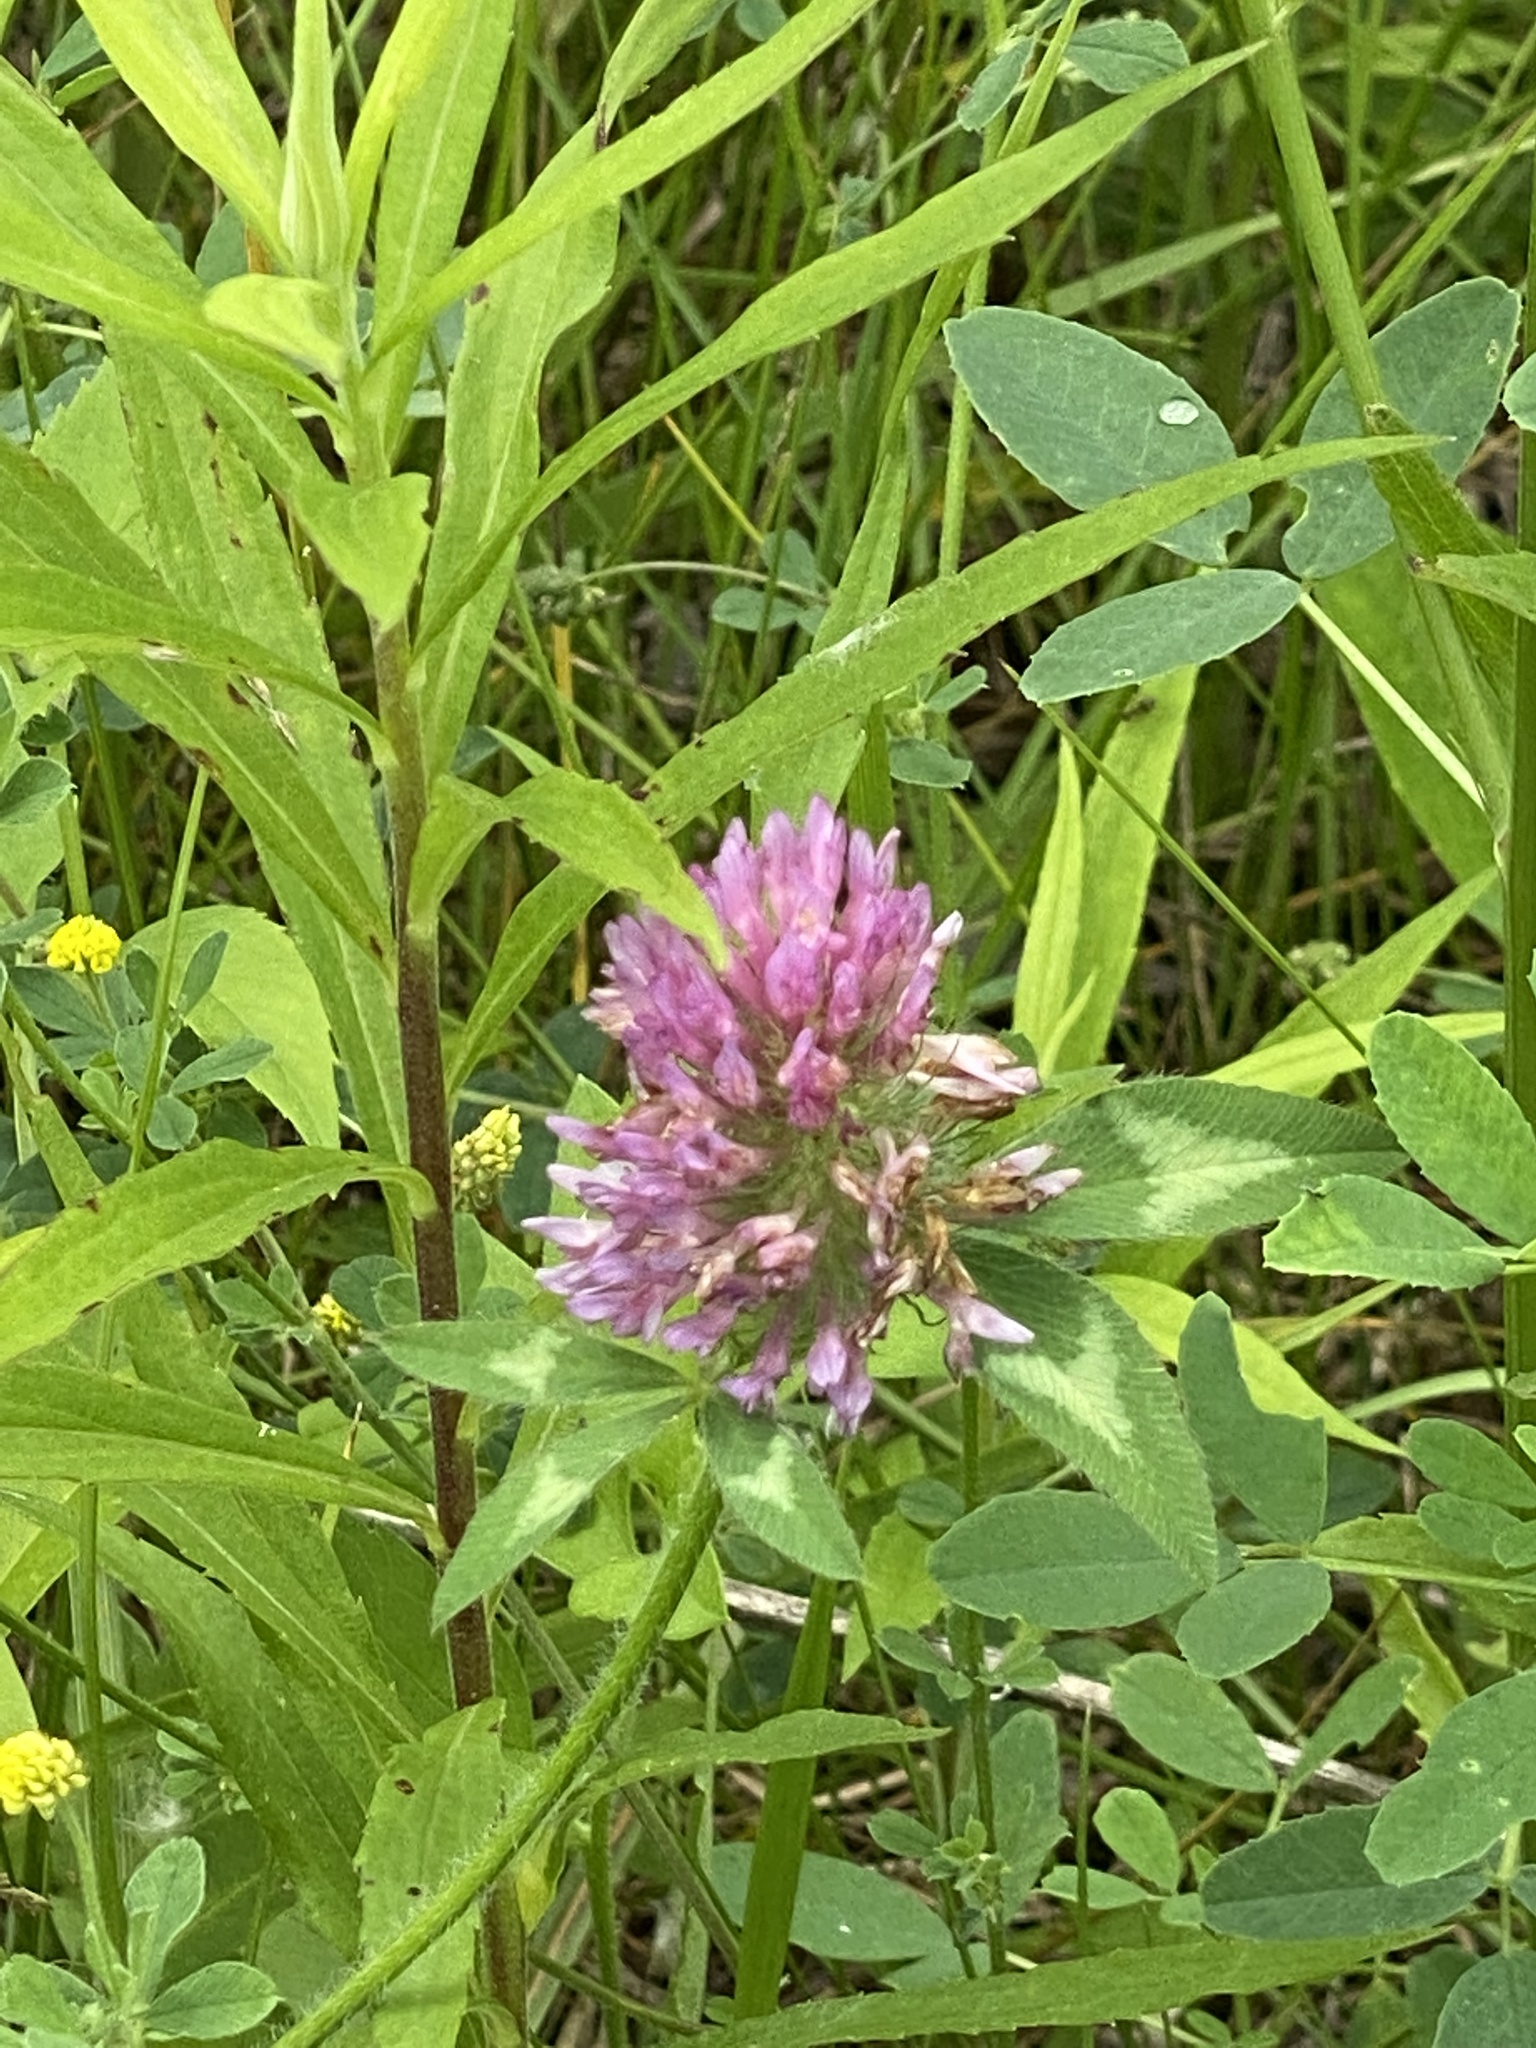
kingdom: Plantae
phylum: Tracheophyta
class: Magnoliopsida
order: Fabales
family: Fabaceae
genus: Trifolium
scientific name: Trifolium pratense
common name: Red clover
